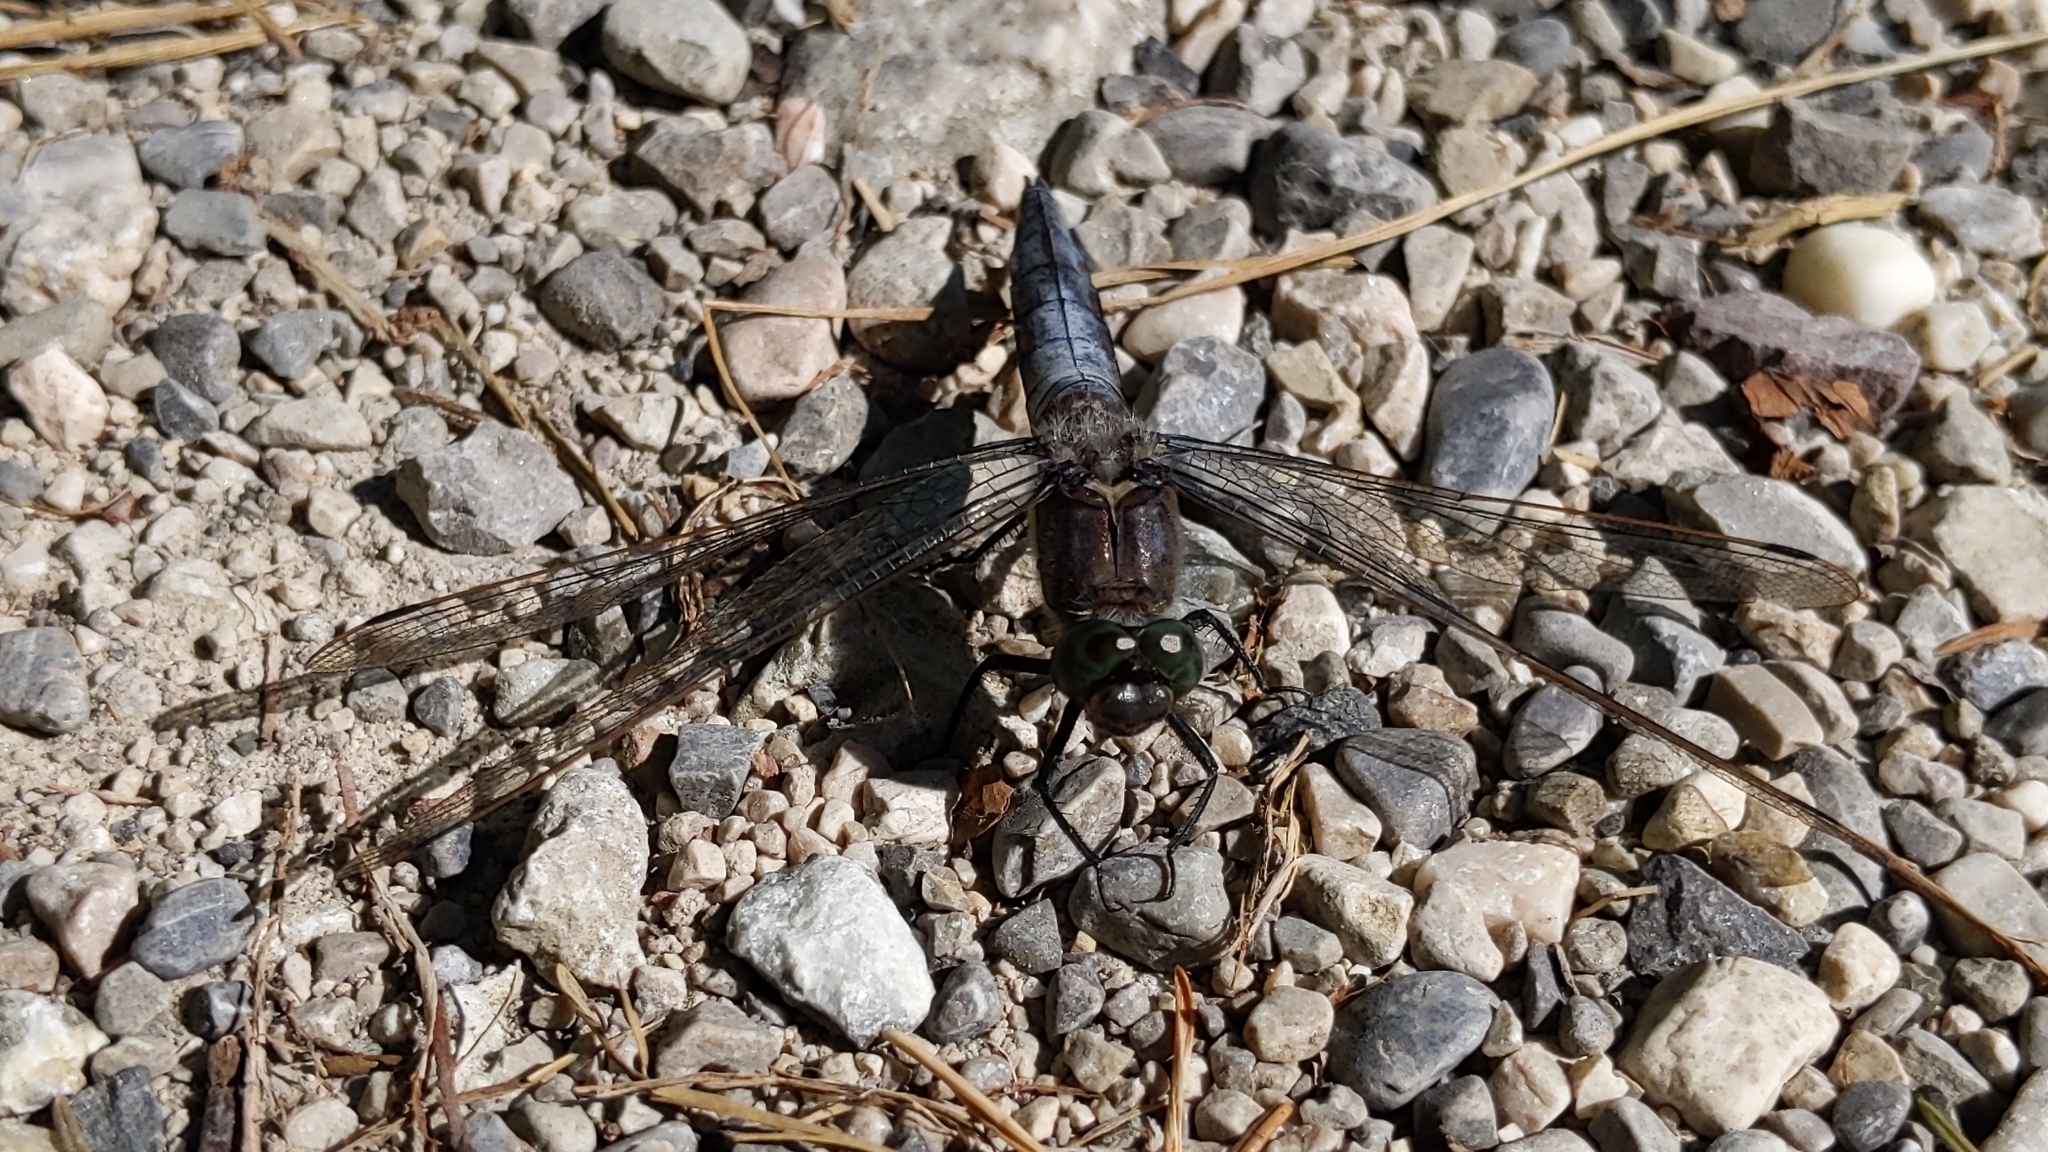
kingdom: Animalia
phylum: Arthropoda
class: Insecta
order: Odonata
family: Libellulidae
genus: Orthetrum
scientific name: Orthetrum cancellatum
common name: Black-tailed skimmer
